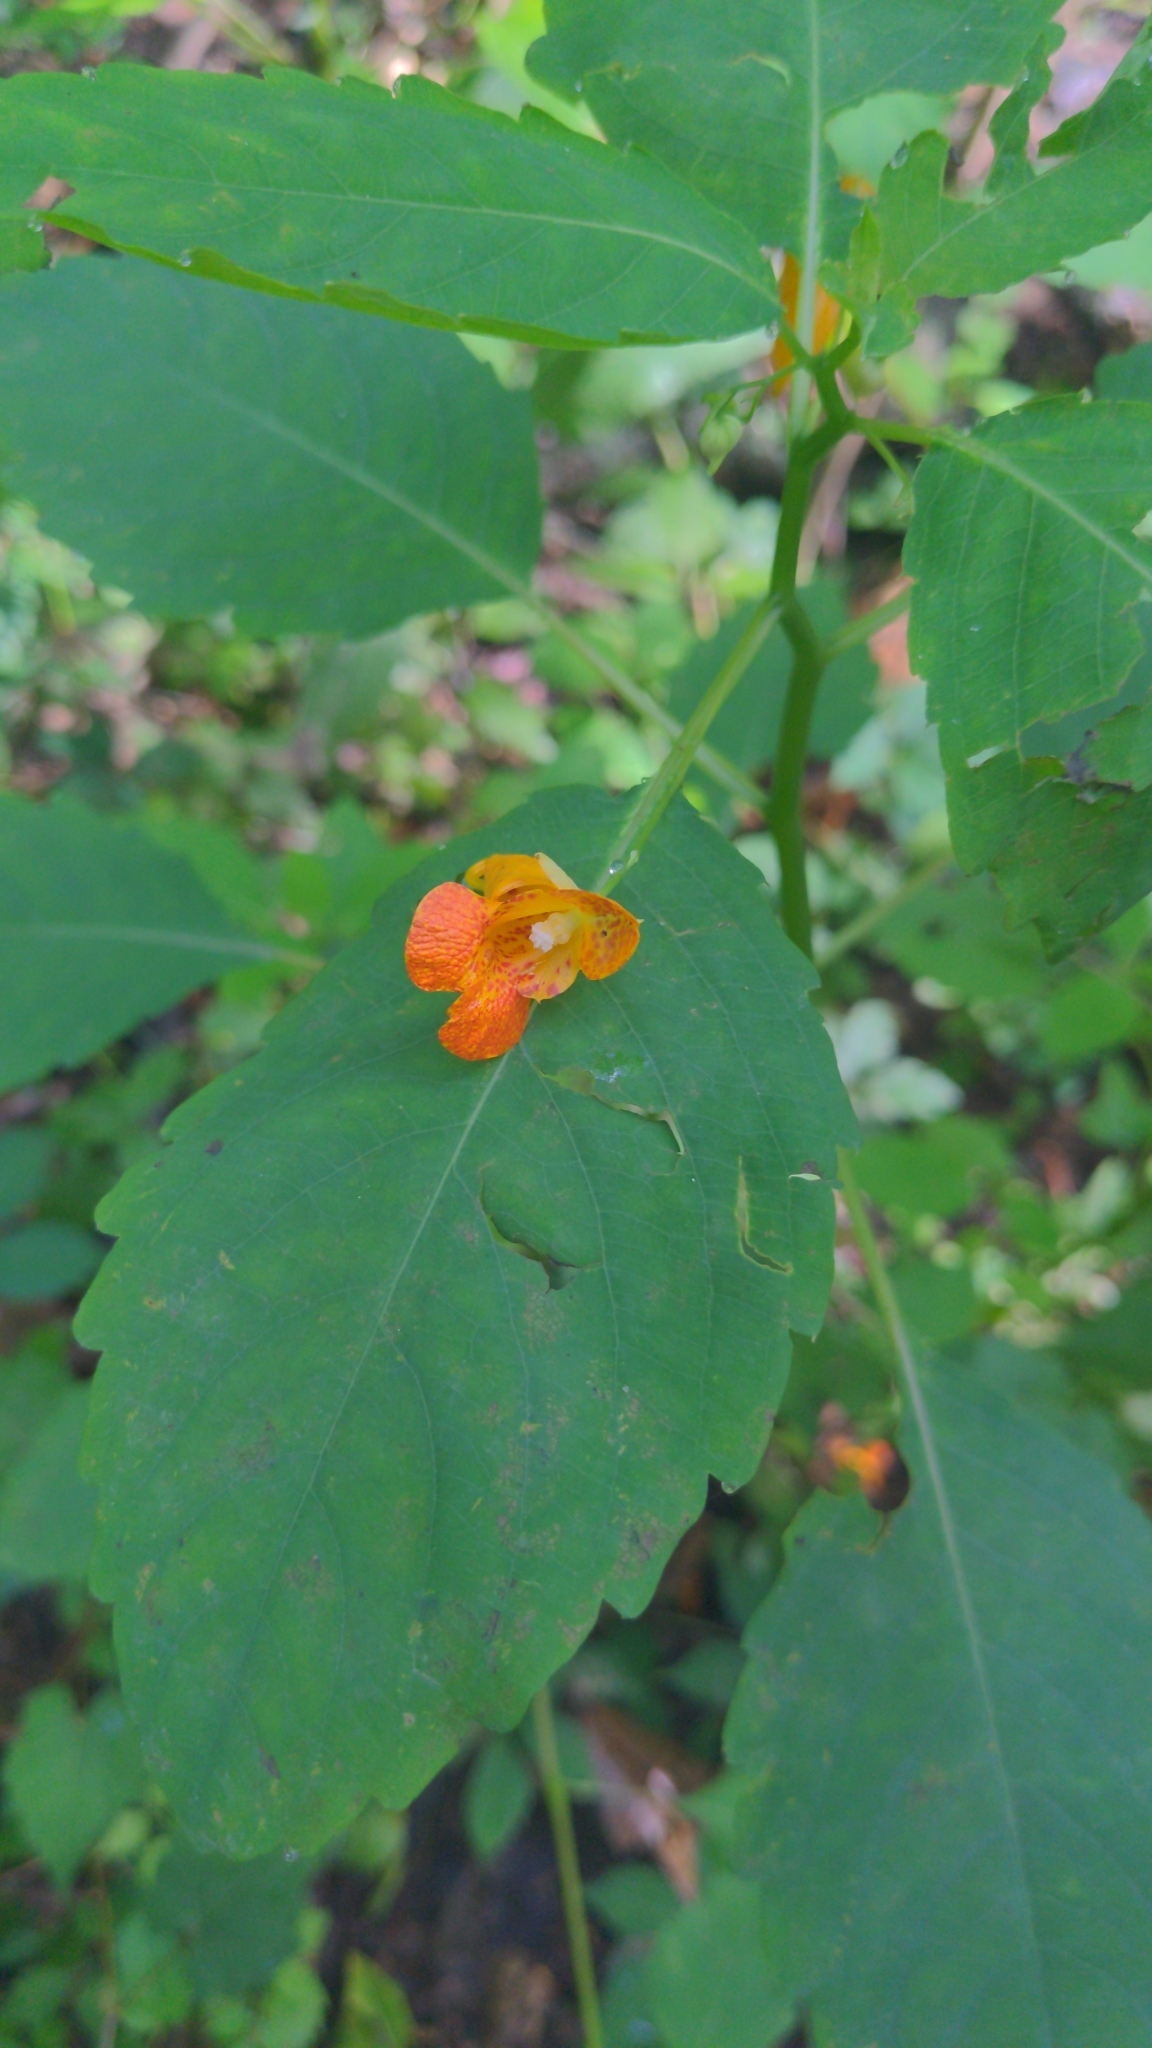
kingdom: Plantae
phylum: Tracheophyta
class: Magnoliopsida
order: Ericales
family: Balsaminaceae
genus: Impatiens
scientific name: Impatiens capensis
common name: Orange balsam
